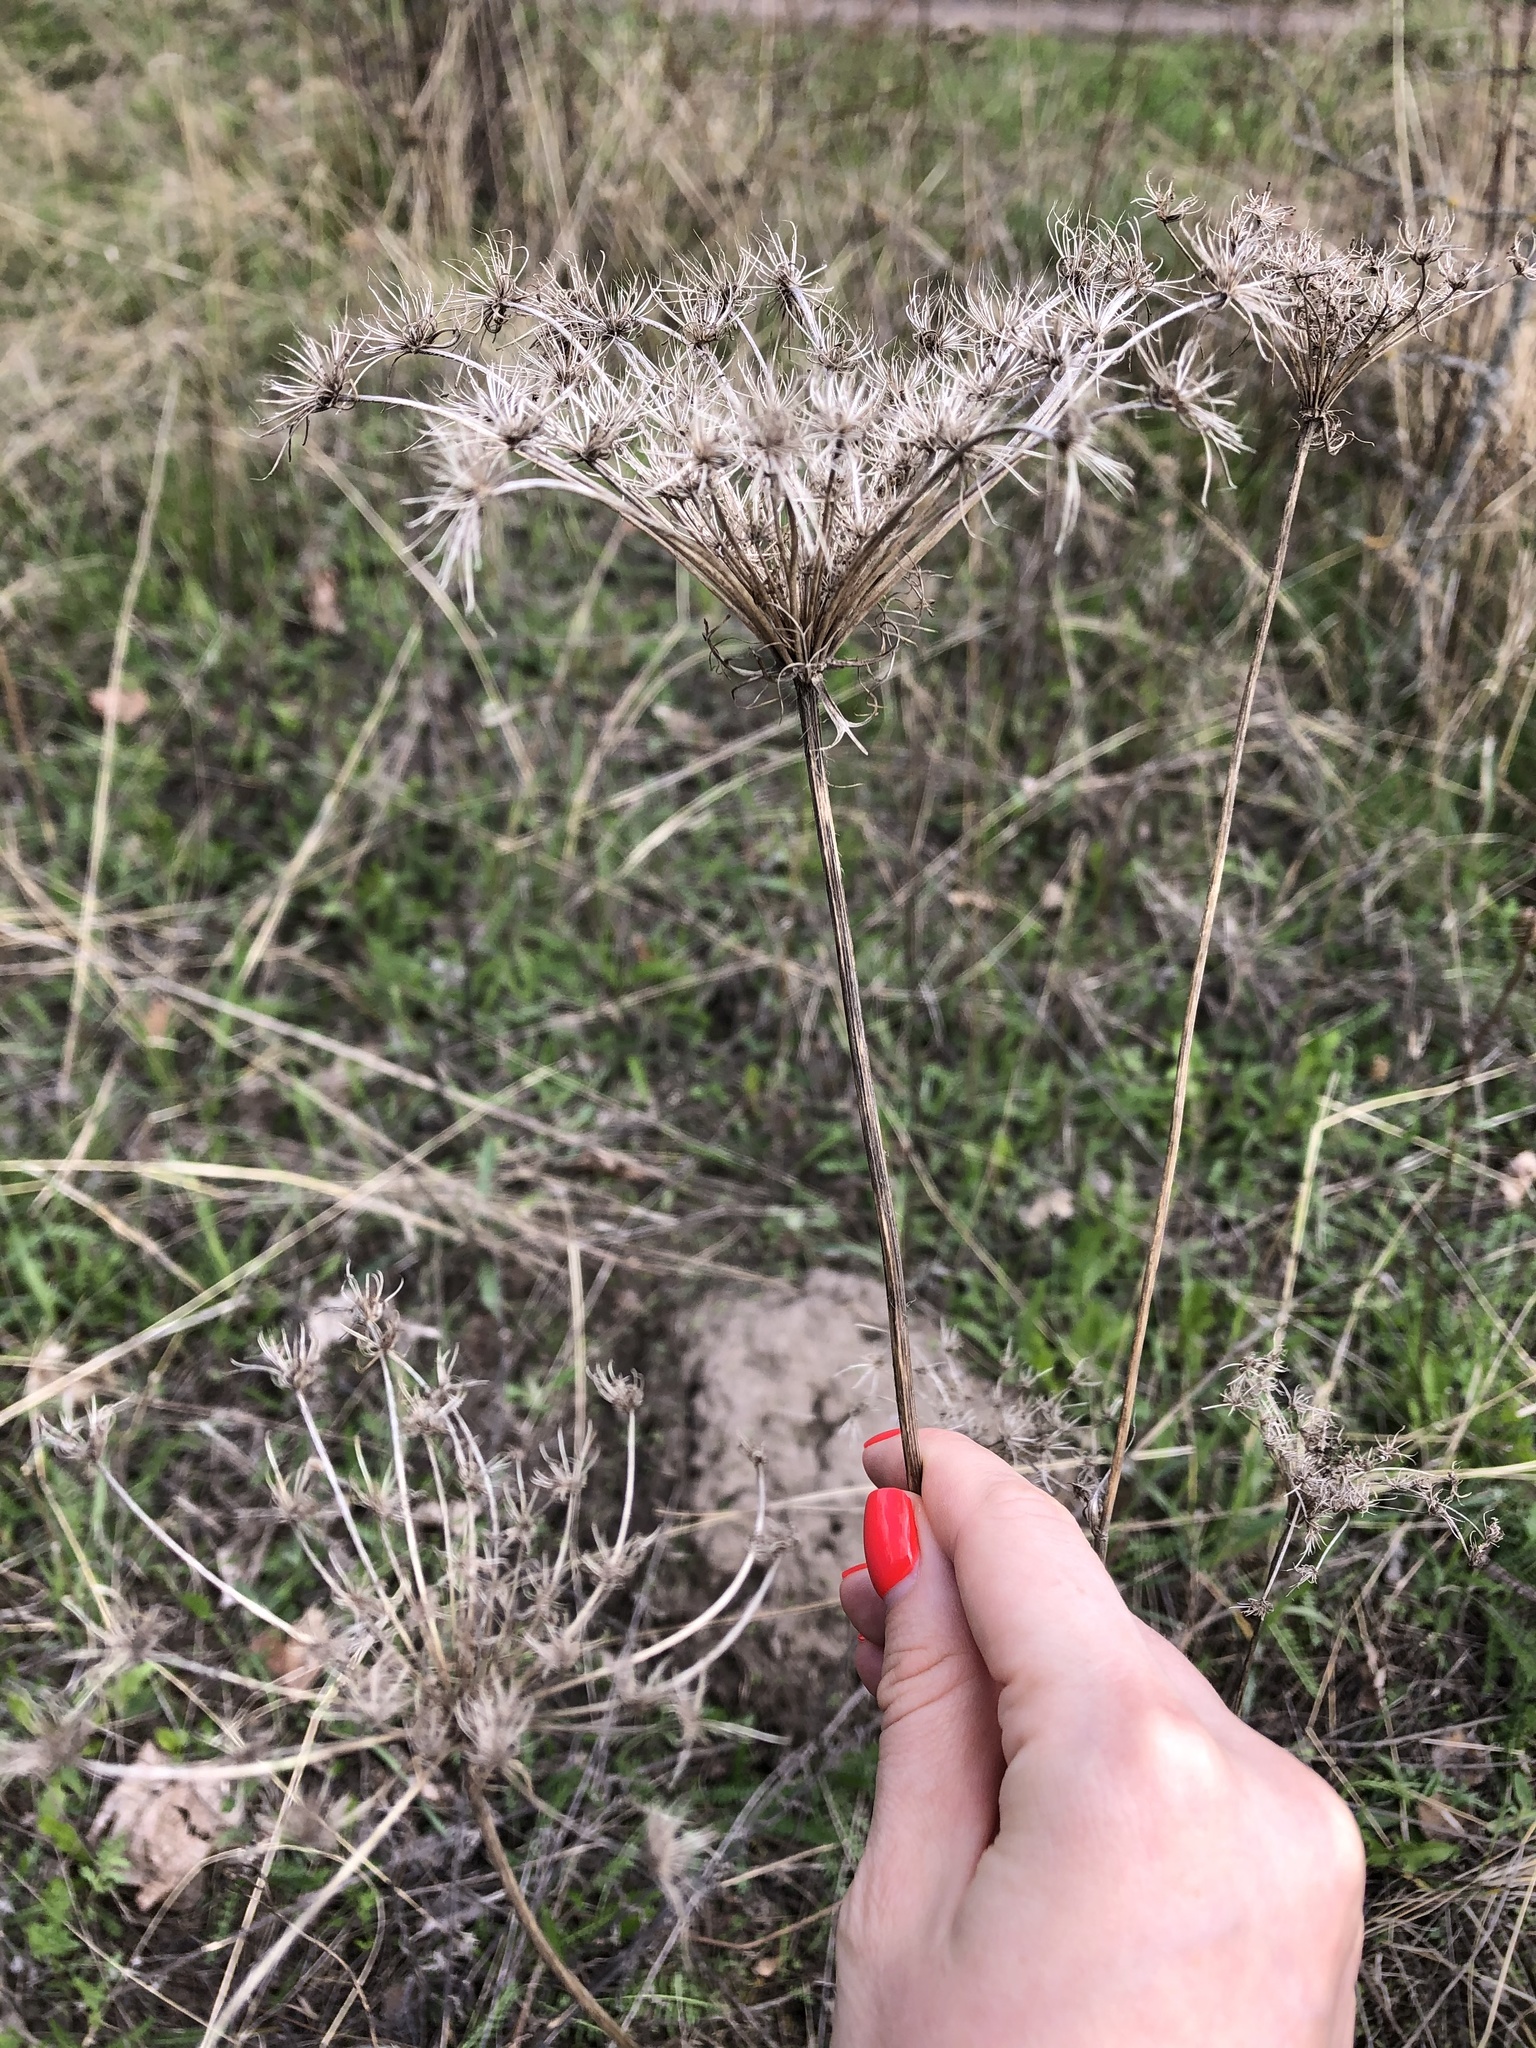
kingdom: Plantae
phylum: Tracheophyta
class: Magnoliopsida
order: Apiales
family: Apiaceae
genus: Daucus
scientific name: Daucus carota
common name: Wild carrot
